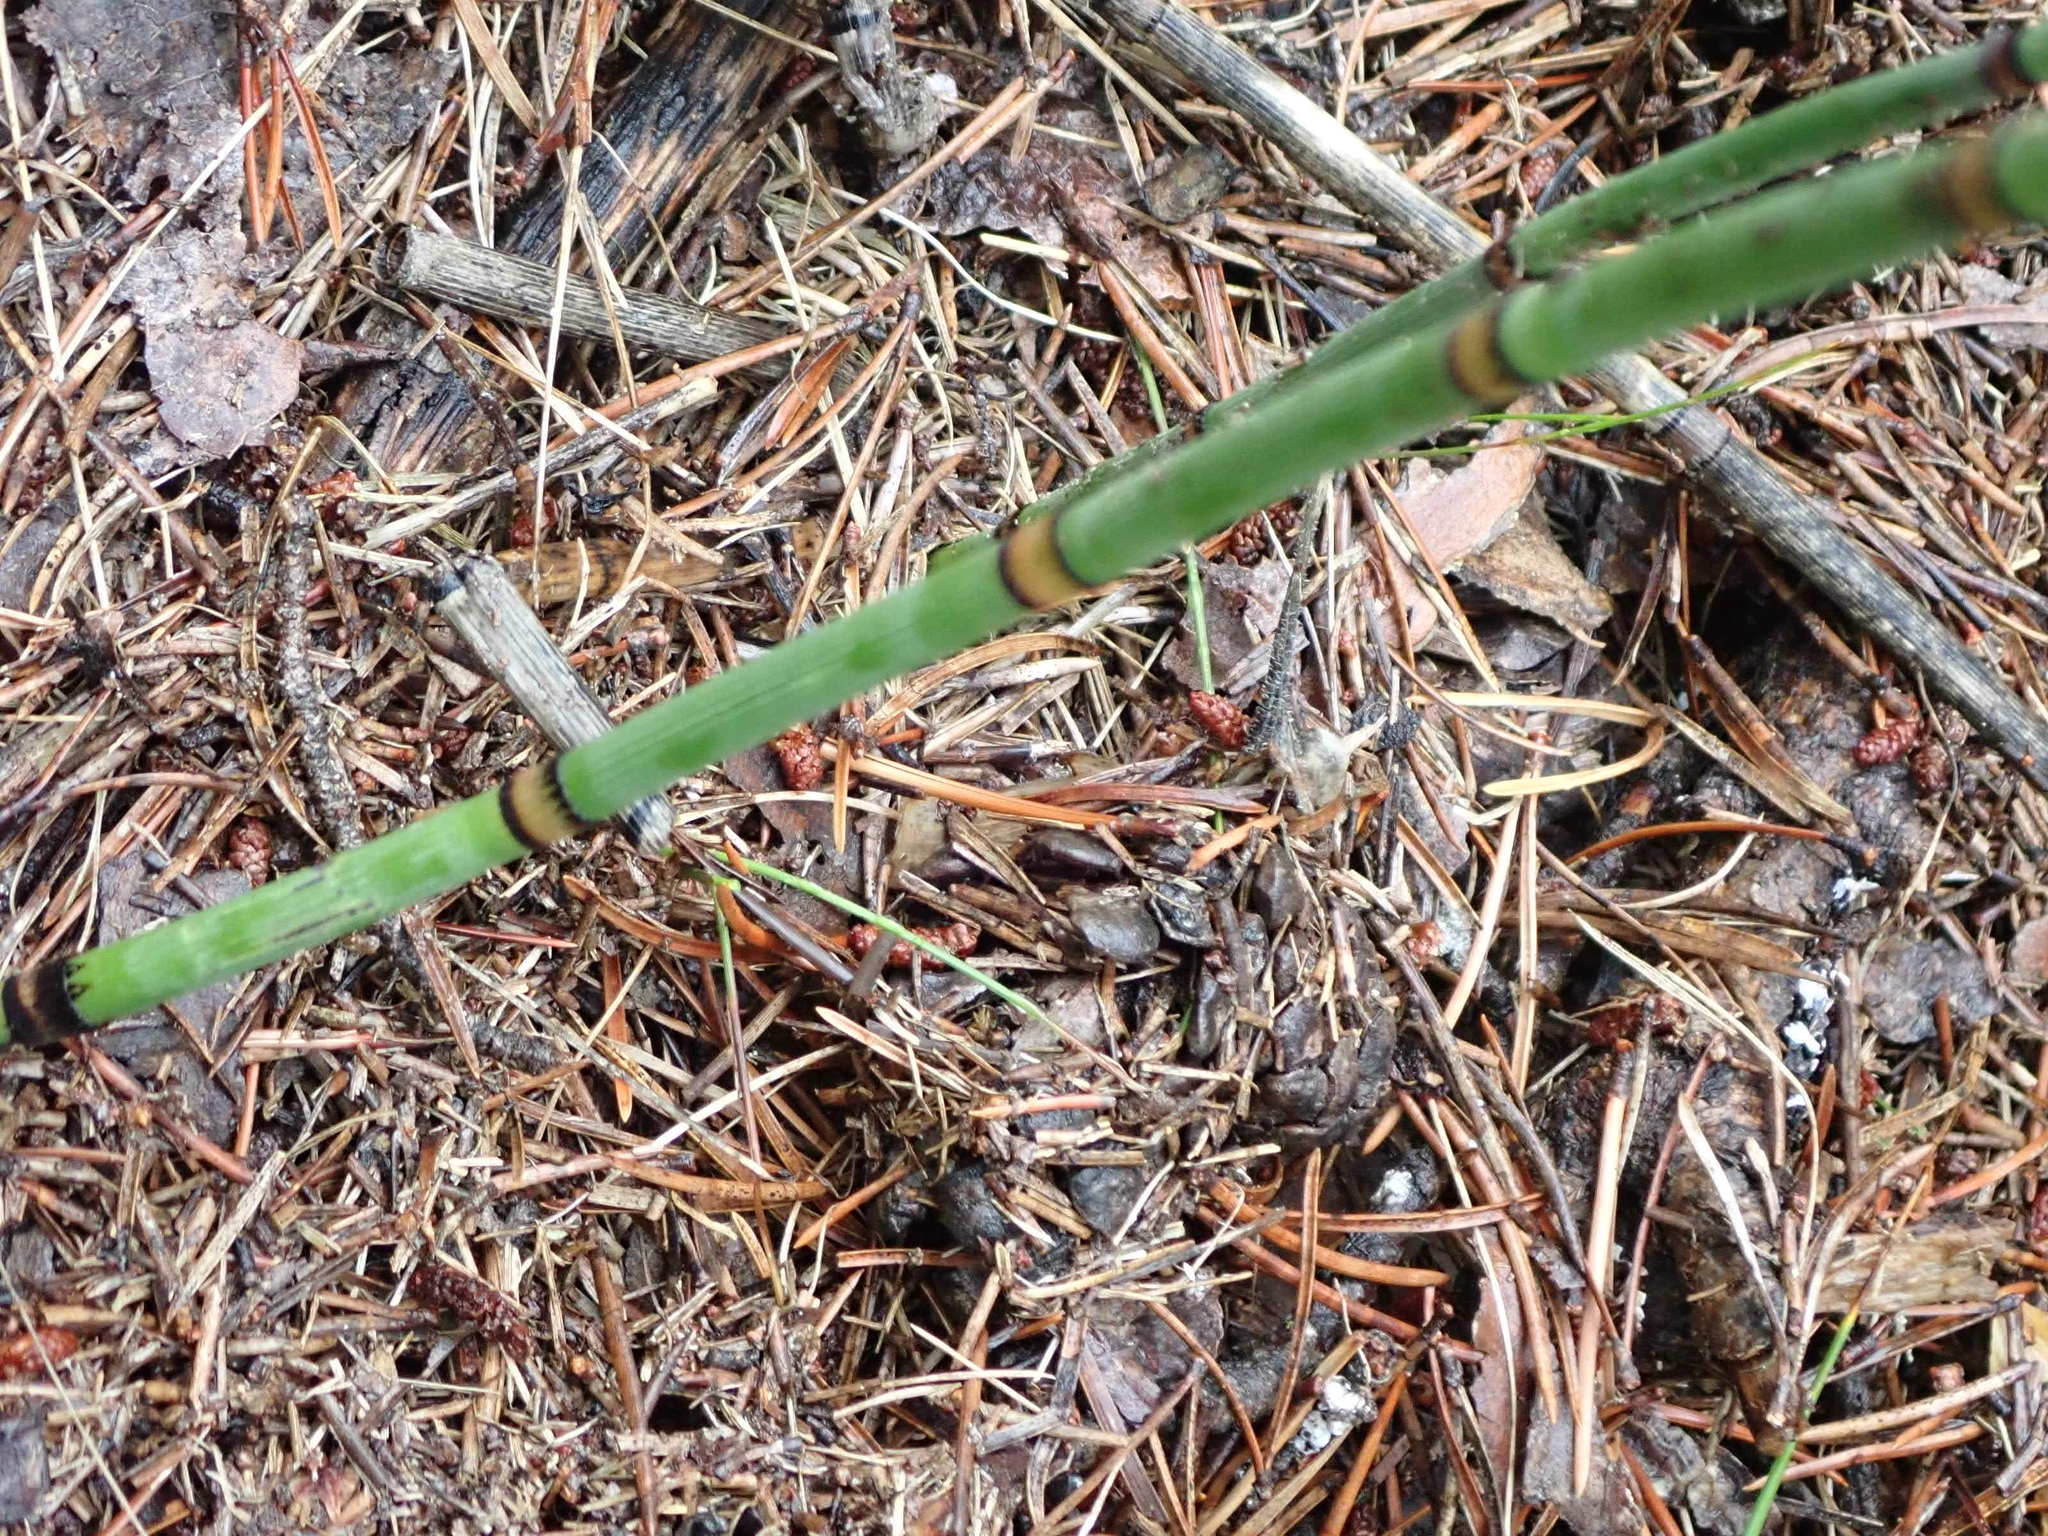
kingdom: Plantae
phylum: Tracheophyta
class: Polypodiopsida
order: Equisetales
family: Equisetaceae
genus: Equisetum
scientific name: Equisetum praealtum
